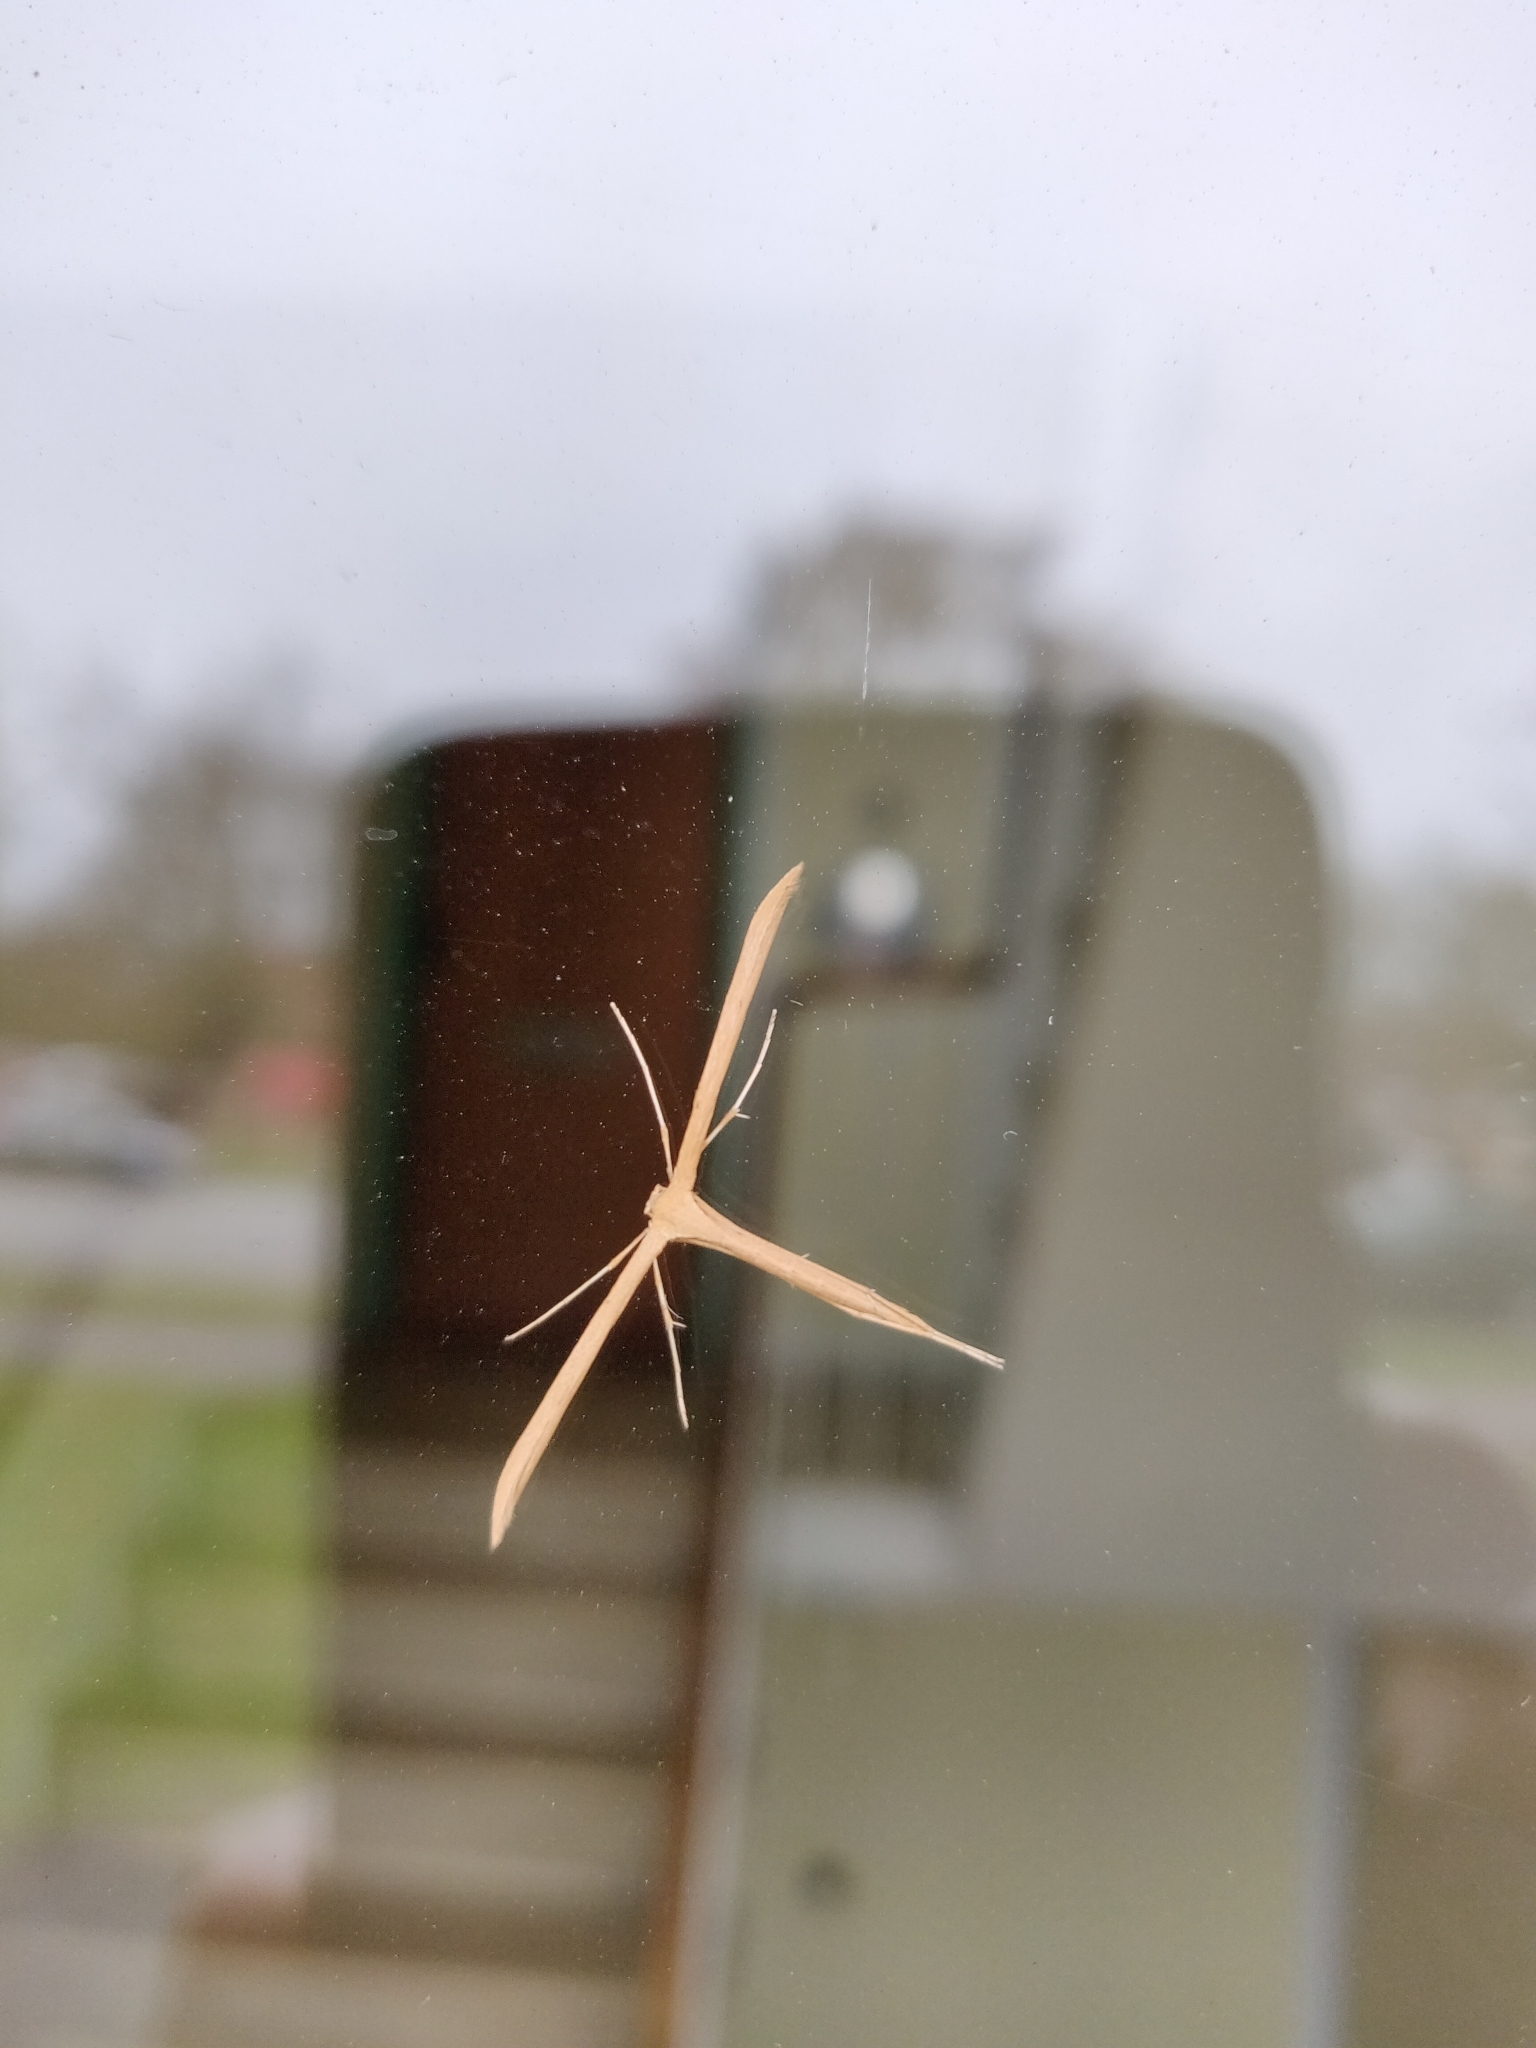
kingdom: Animalia
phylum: Arthropoda
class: Insecta
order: Lepidoptera
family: Pterophoridae
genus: Emmelina
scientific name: Emmelina monodactyla
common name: Common plume
